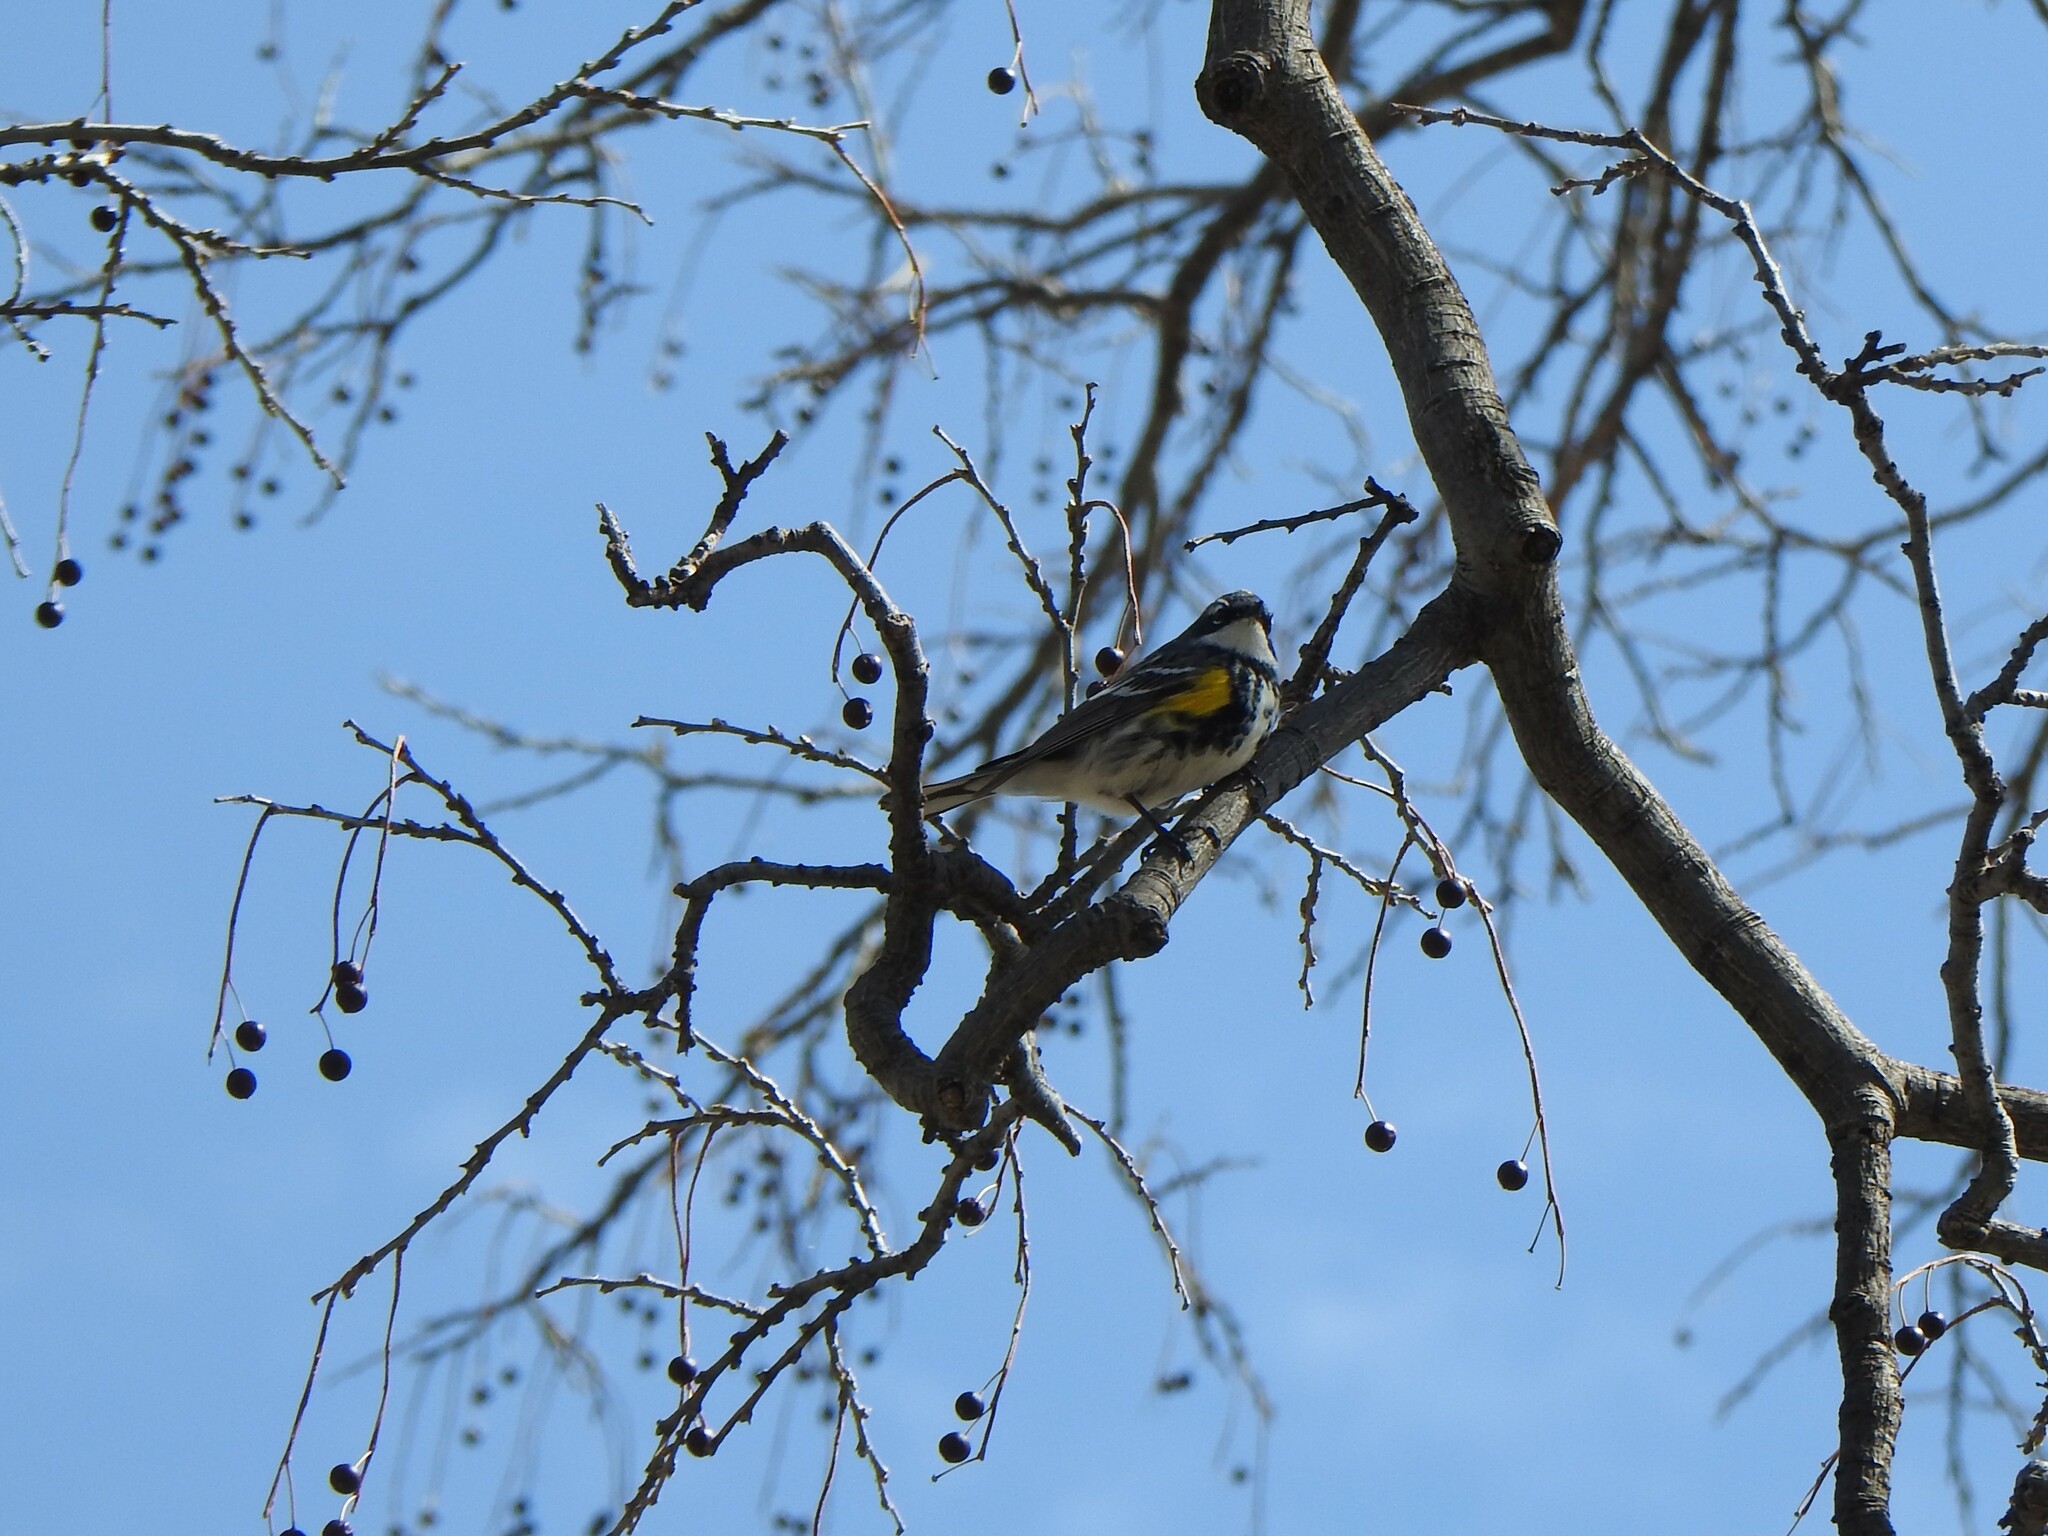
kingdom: Animalia
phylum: Chordata
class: Aves
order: Passeriformes
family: Parulidae
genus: Setophaga
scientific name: Setophaga coronata
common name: Myrtle warbler
